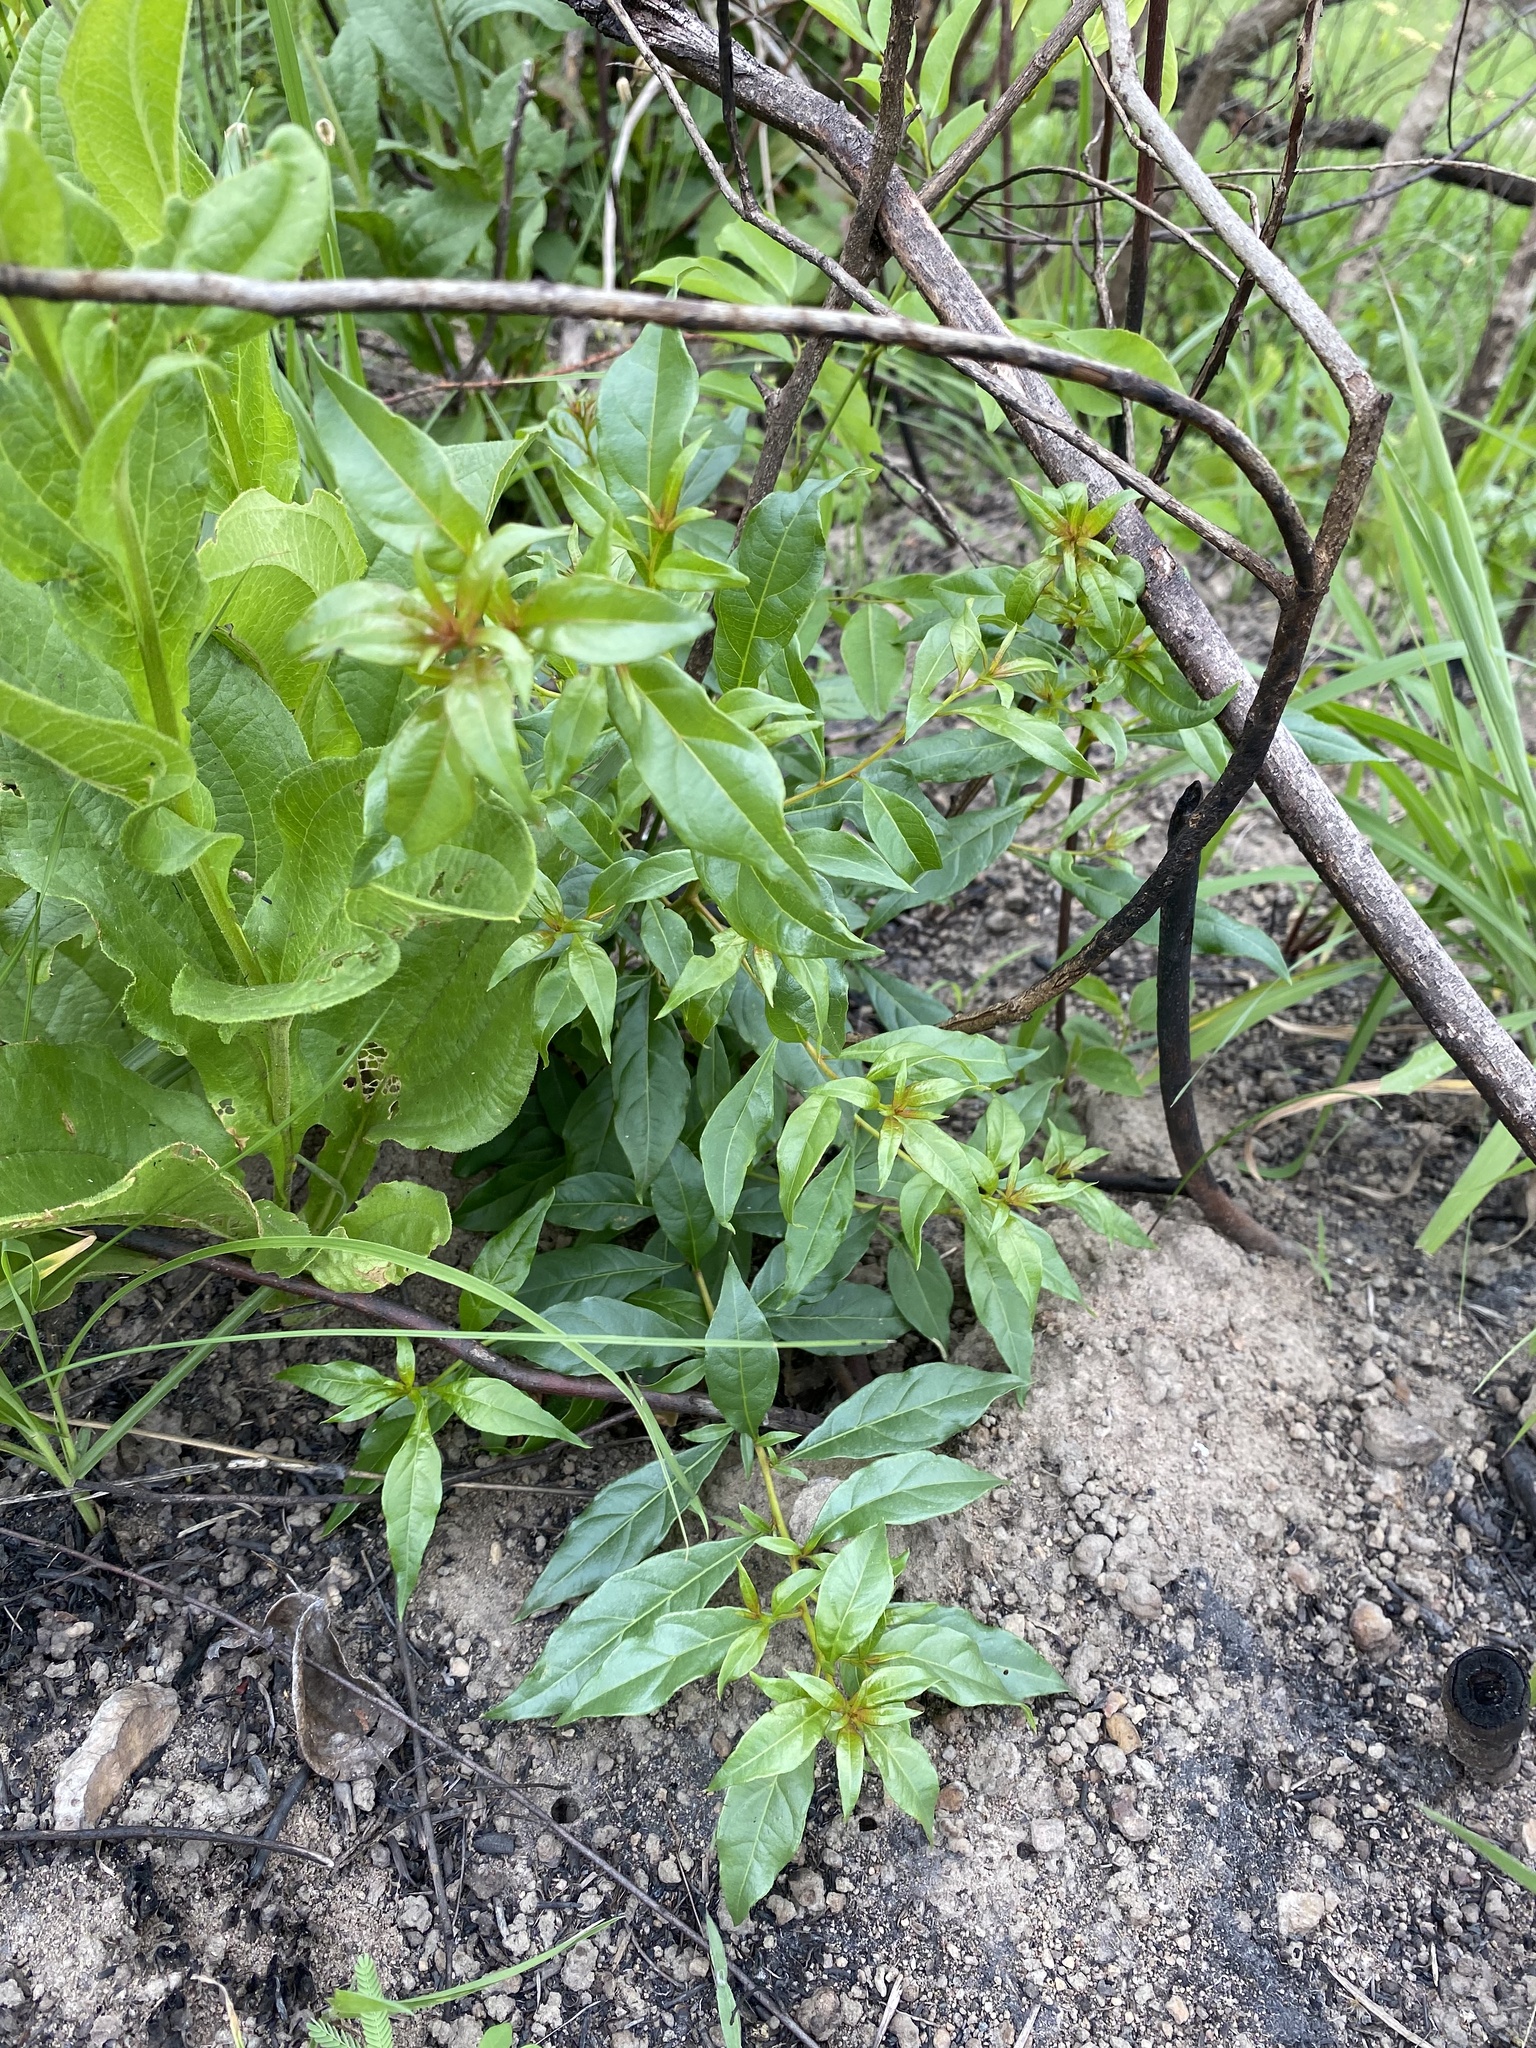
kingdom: Plantae
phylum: Tracheophyta
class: Magnoliopsida
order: Myrtales
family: Myrtaceae
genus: Heteropyxis
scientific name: Heteropyxis natalensis
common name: Lavender tree
